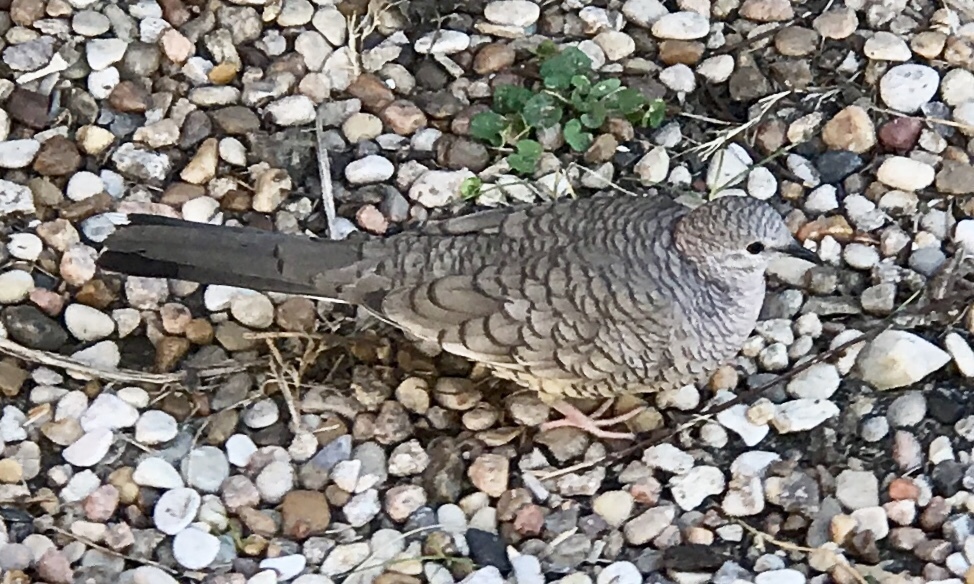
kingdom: Animalia
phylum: Chordata
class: Aves
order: Columbiformes
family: Columbidae
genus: Columbina
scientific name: Columbina inca
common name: Inca dove
